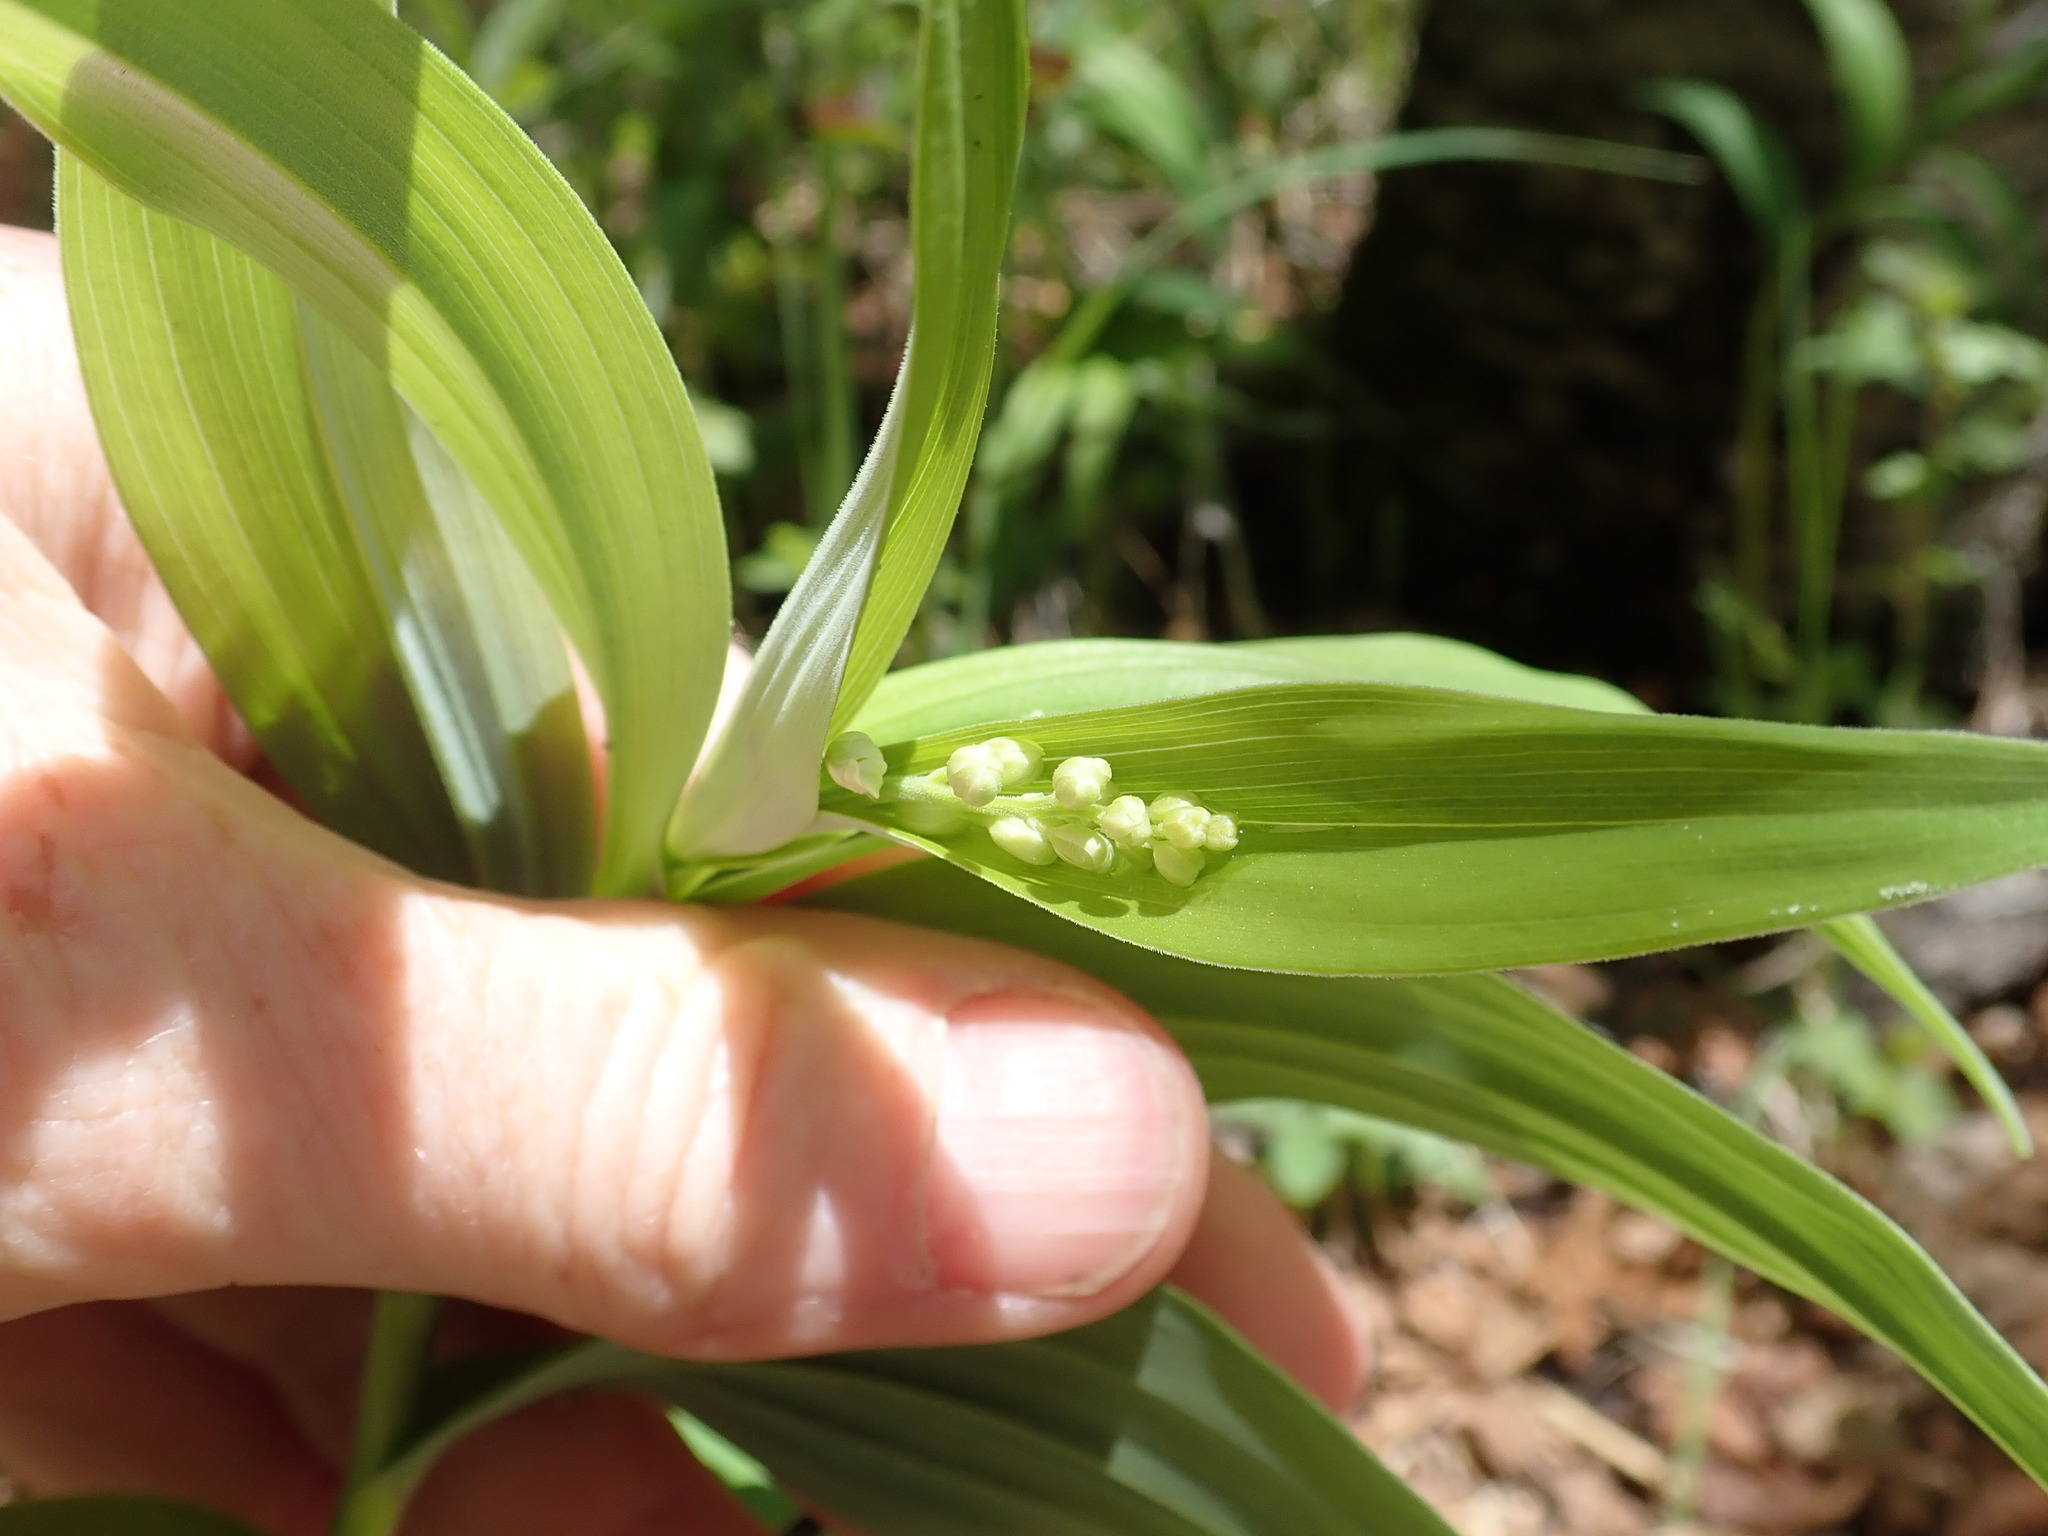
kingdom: Plantae
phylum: Tracheophyta
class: Liliopsida
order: Asparagales
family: Asparagaceae
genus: Maianthemum
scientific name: Maianthemum stellatum
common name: Little false solomon's seal
